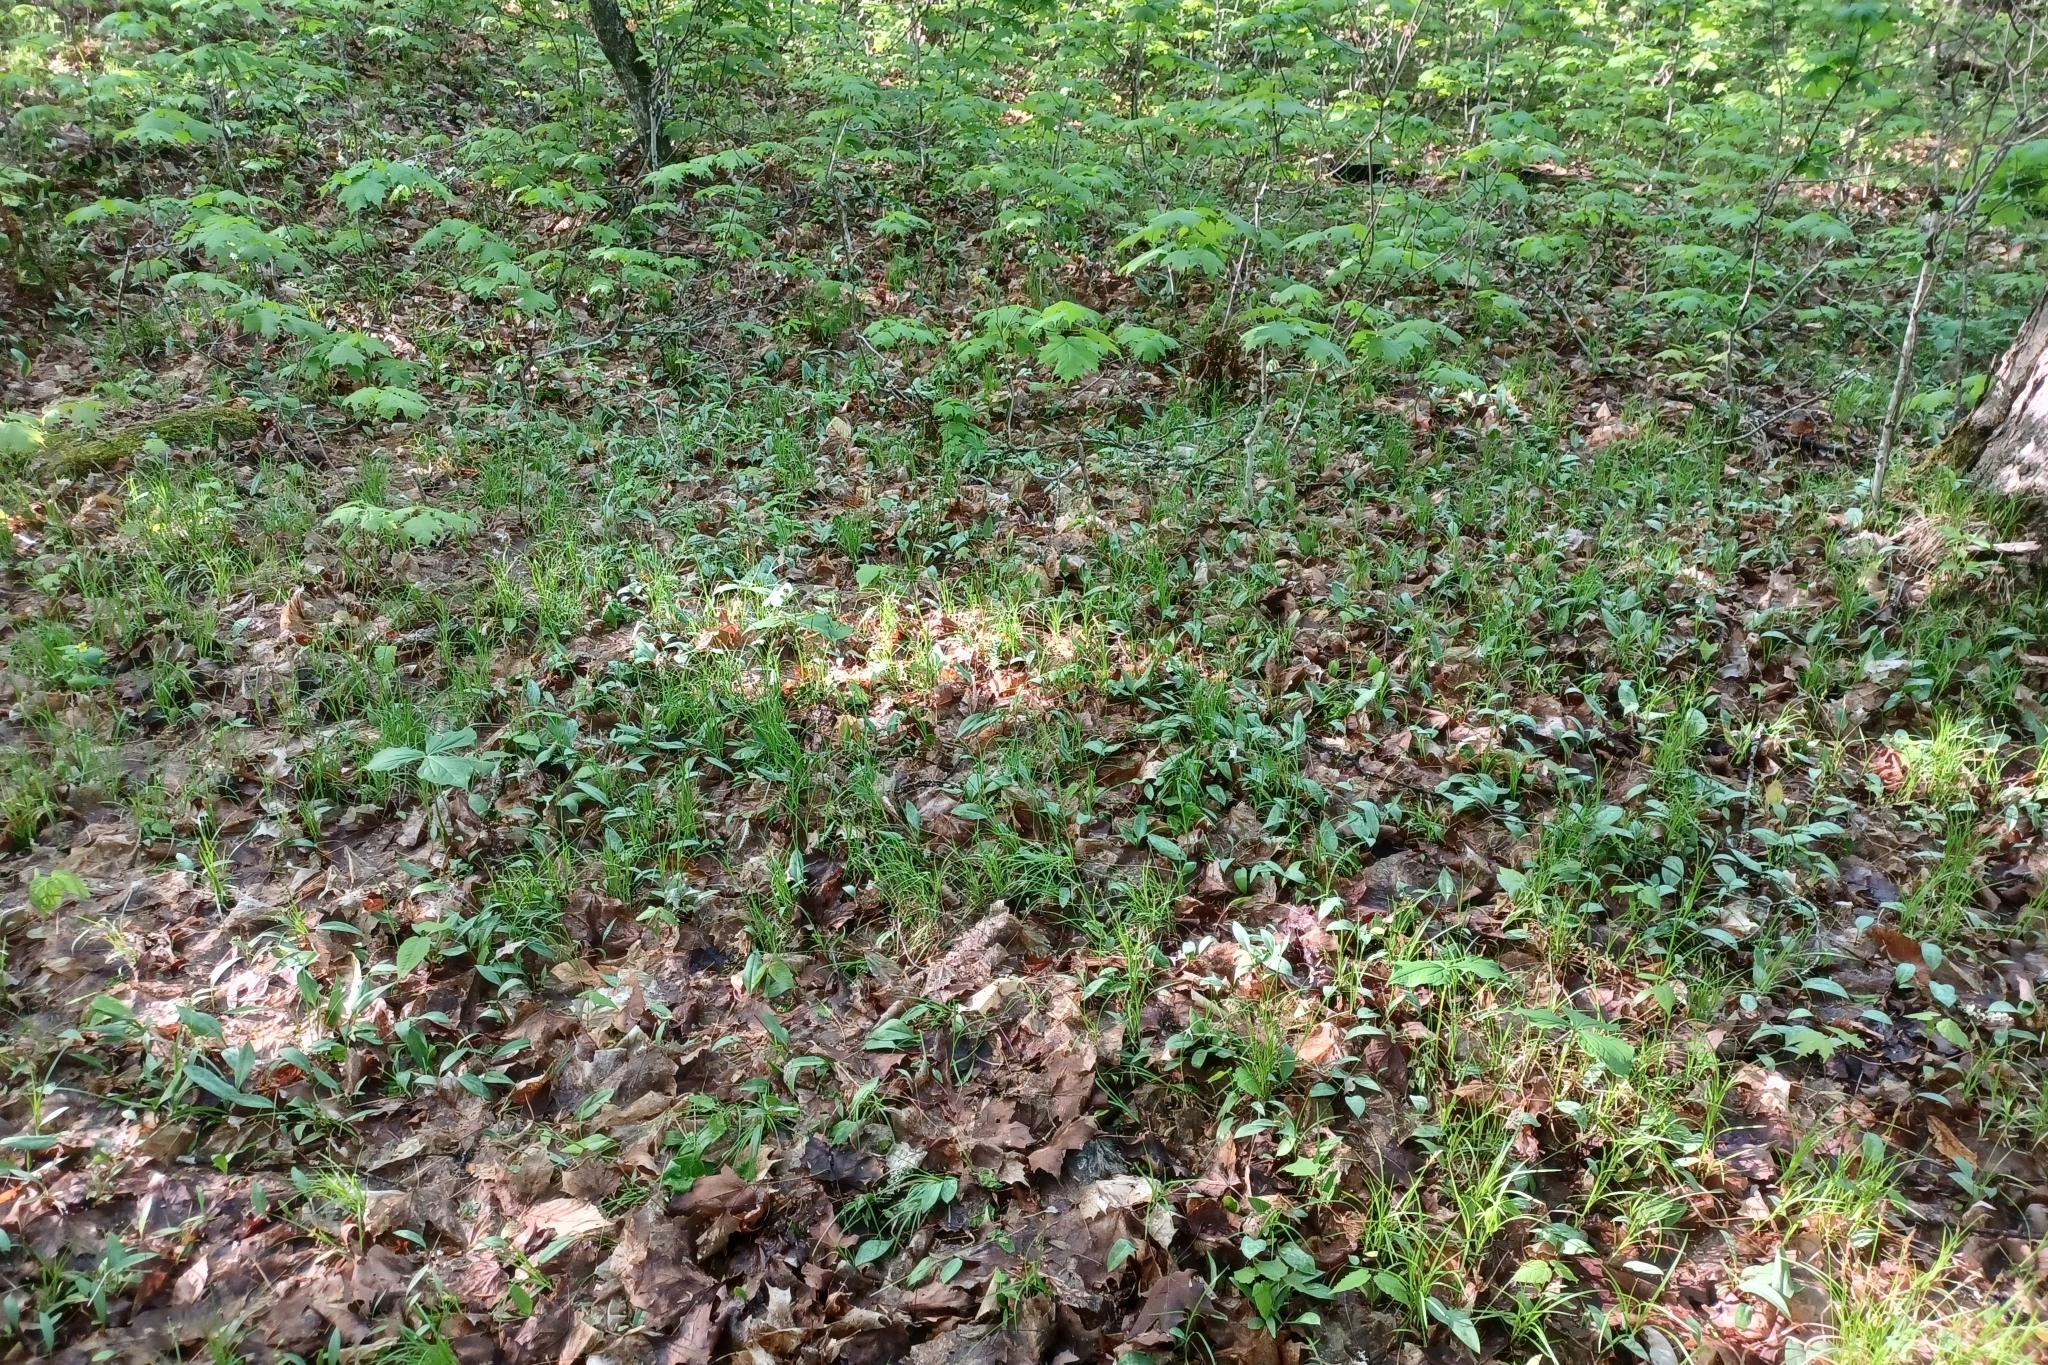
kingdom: Plantae
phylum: Tracheophyta
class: Liliopsida
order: Poales
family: Cyperaceae
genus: Carex
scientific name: Carex pensylvanica
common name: Common oak sedge
